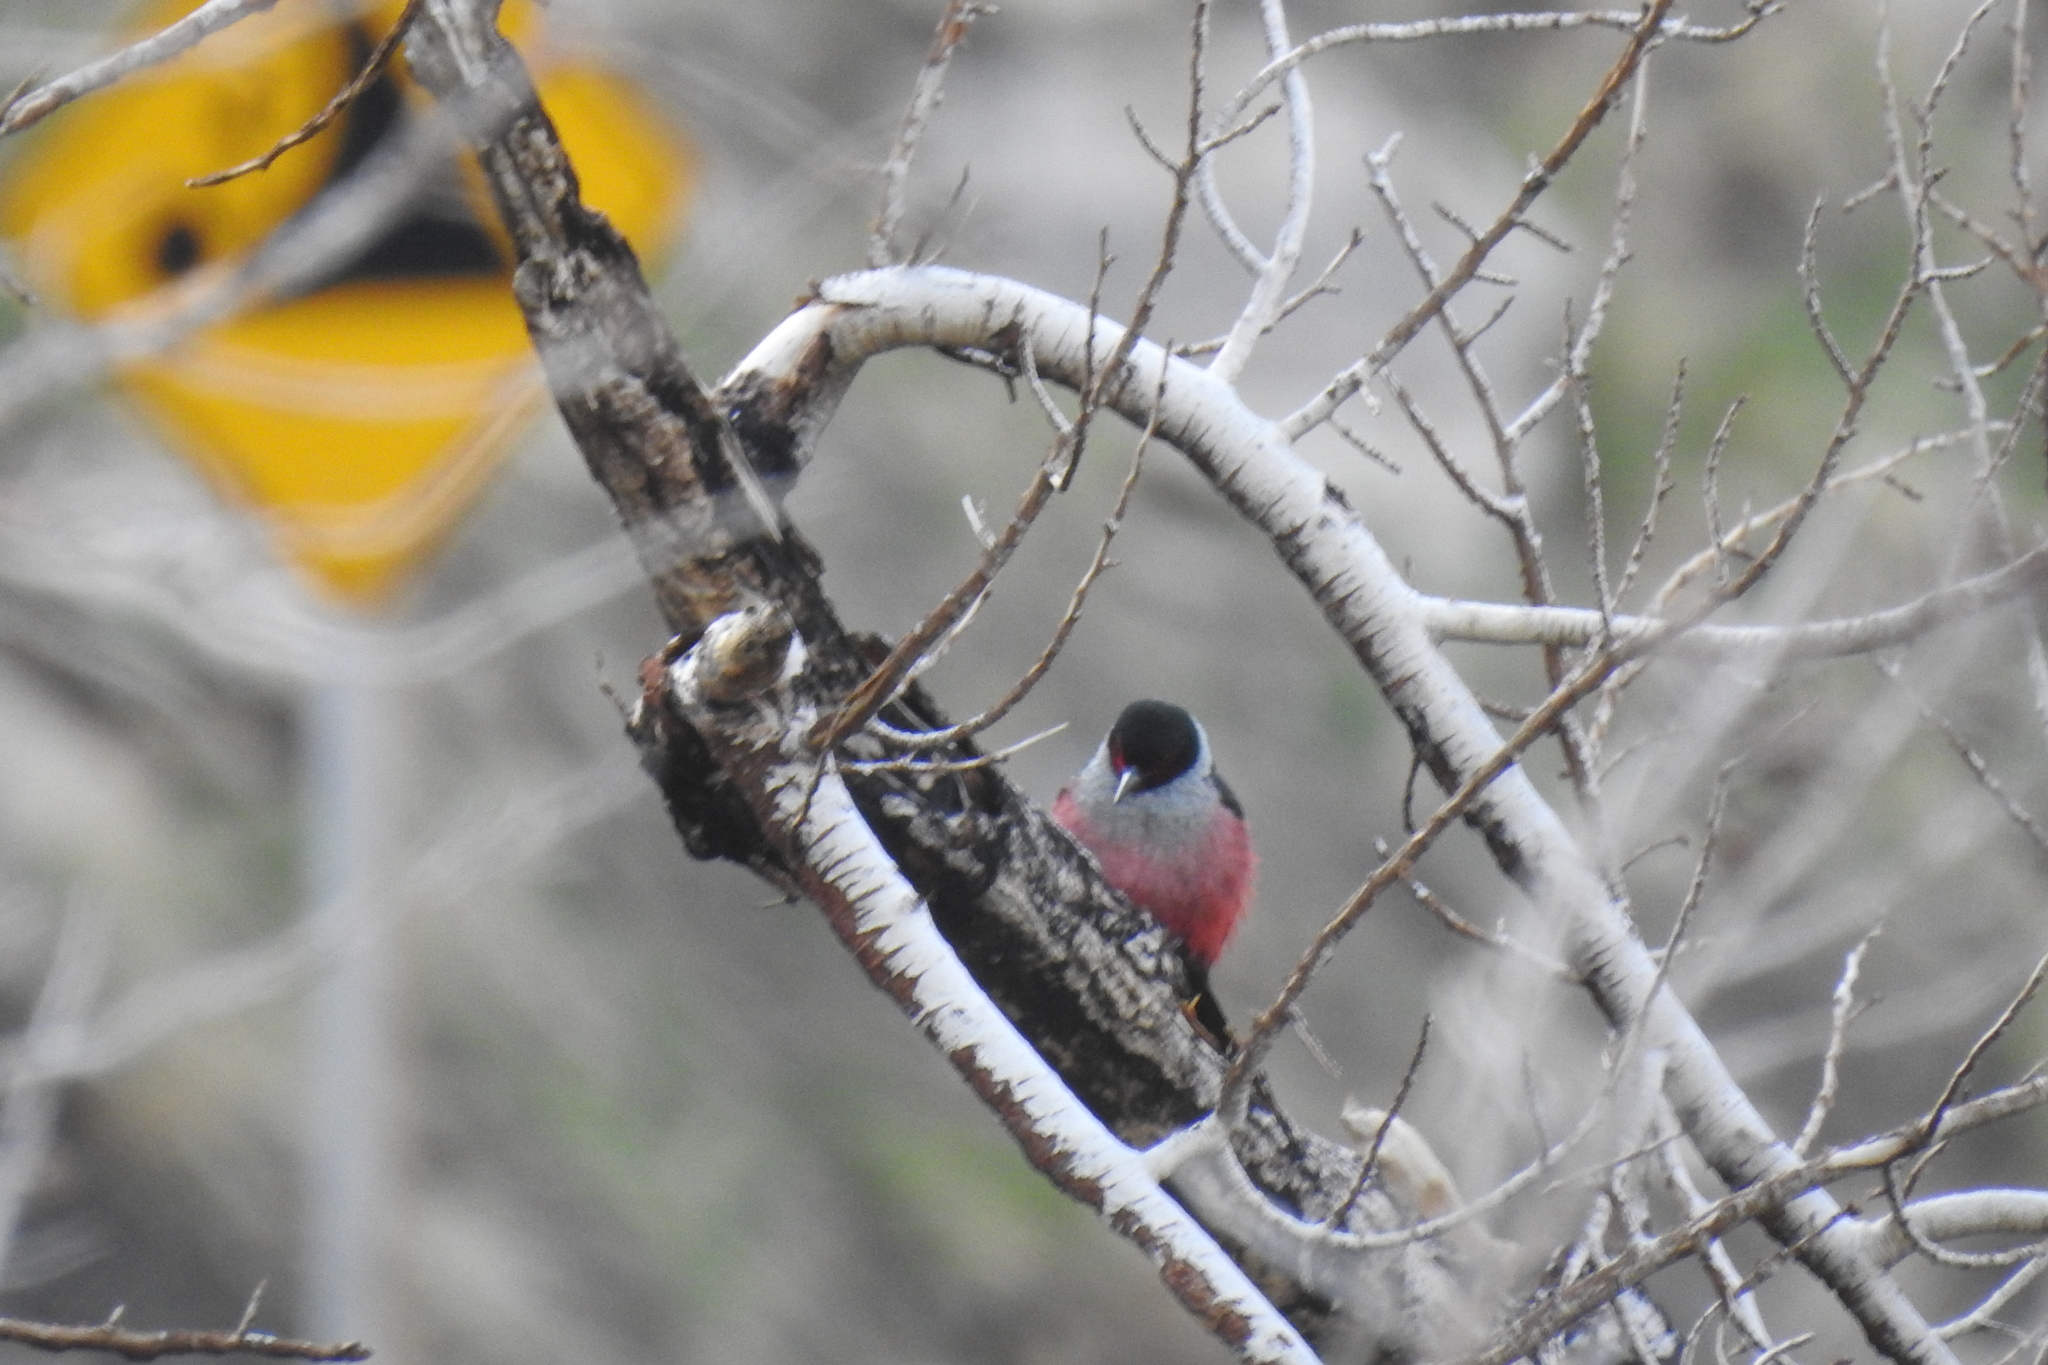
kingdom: Animalia
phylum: Chordata
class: Aves
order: Piciformes
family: Picidae
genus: Melanerpes
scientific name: Melanerpes lewis
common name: Lewis's woodpecker
